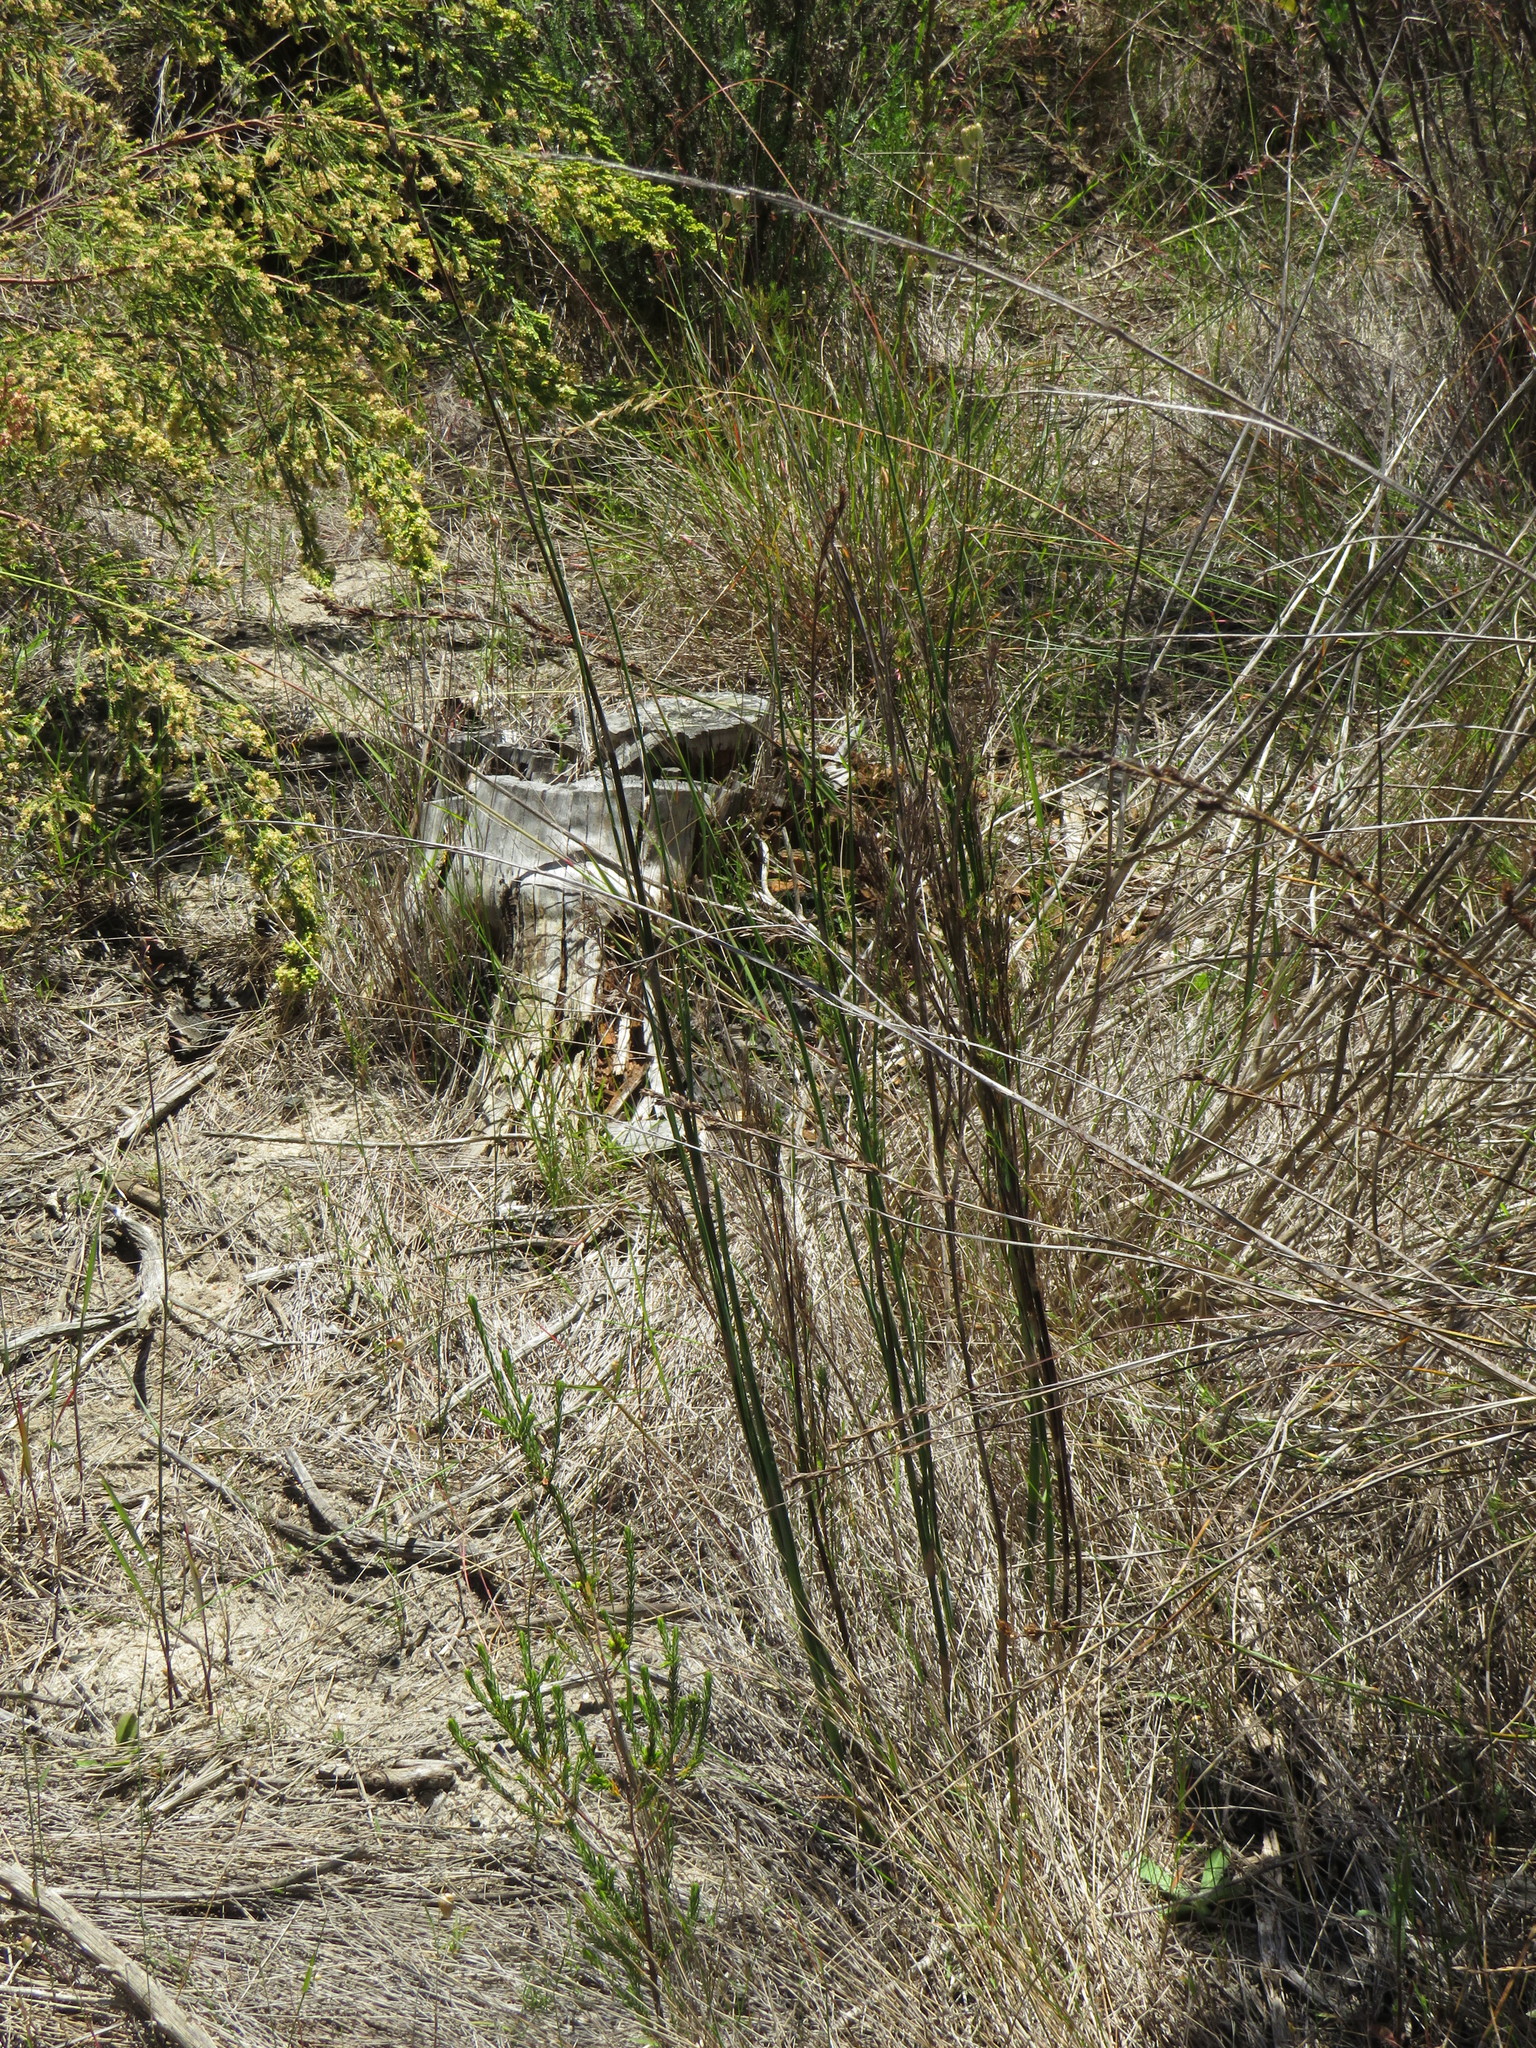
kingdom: Plantae
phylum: Tracheophyta
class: Liliopsida
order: Poales
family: Restionaceae
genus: Restio
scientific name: Restio tetragonus
